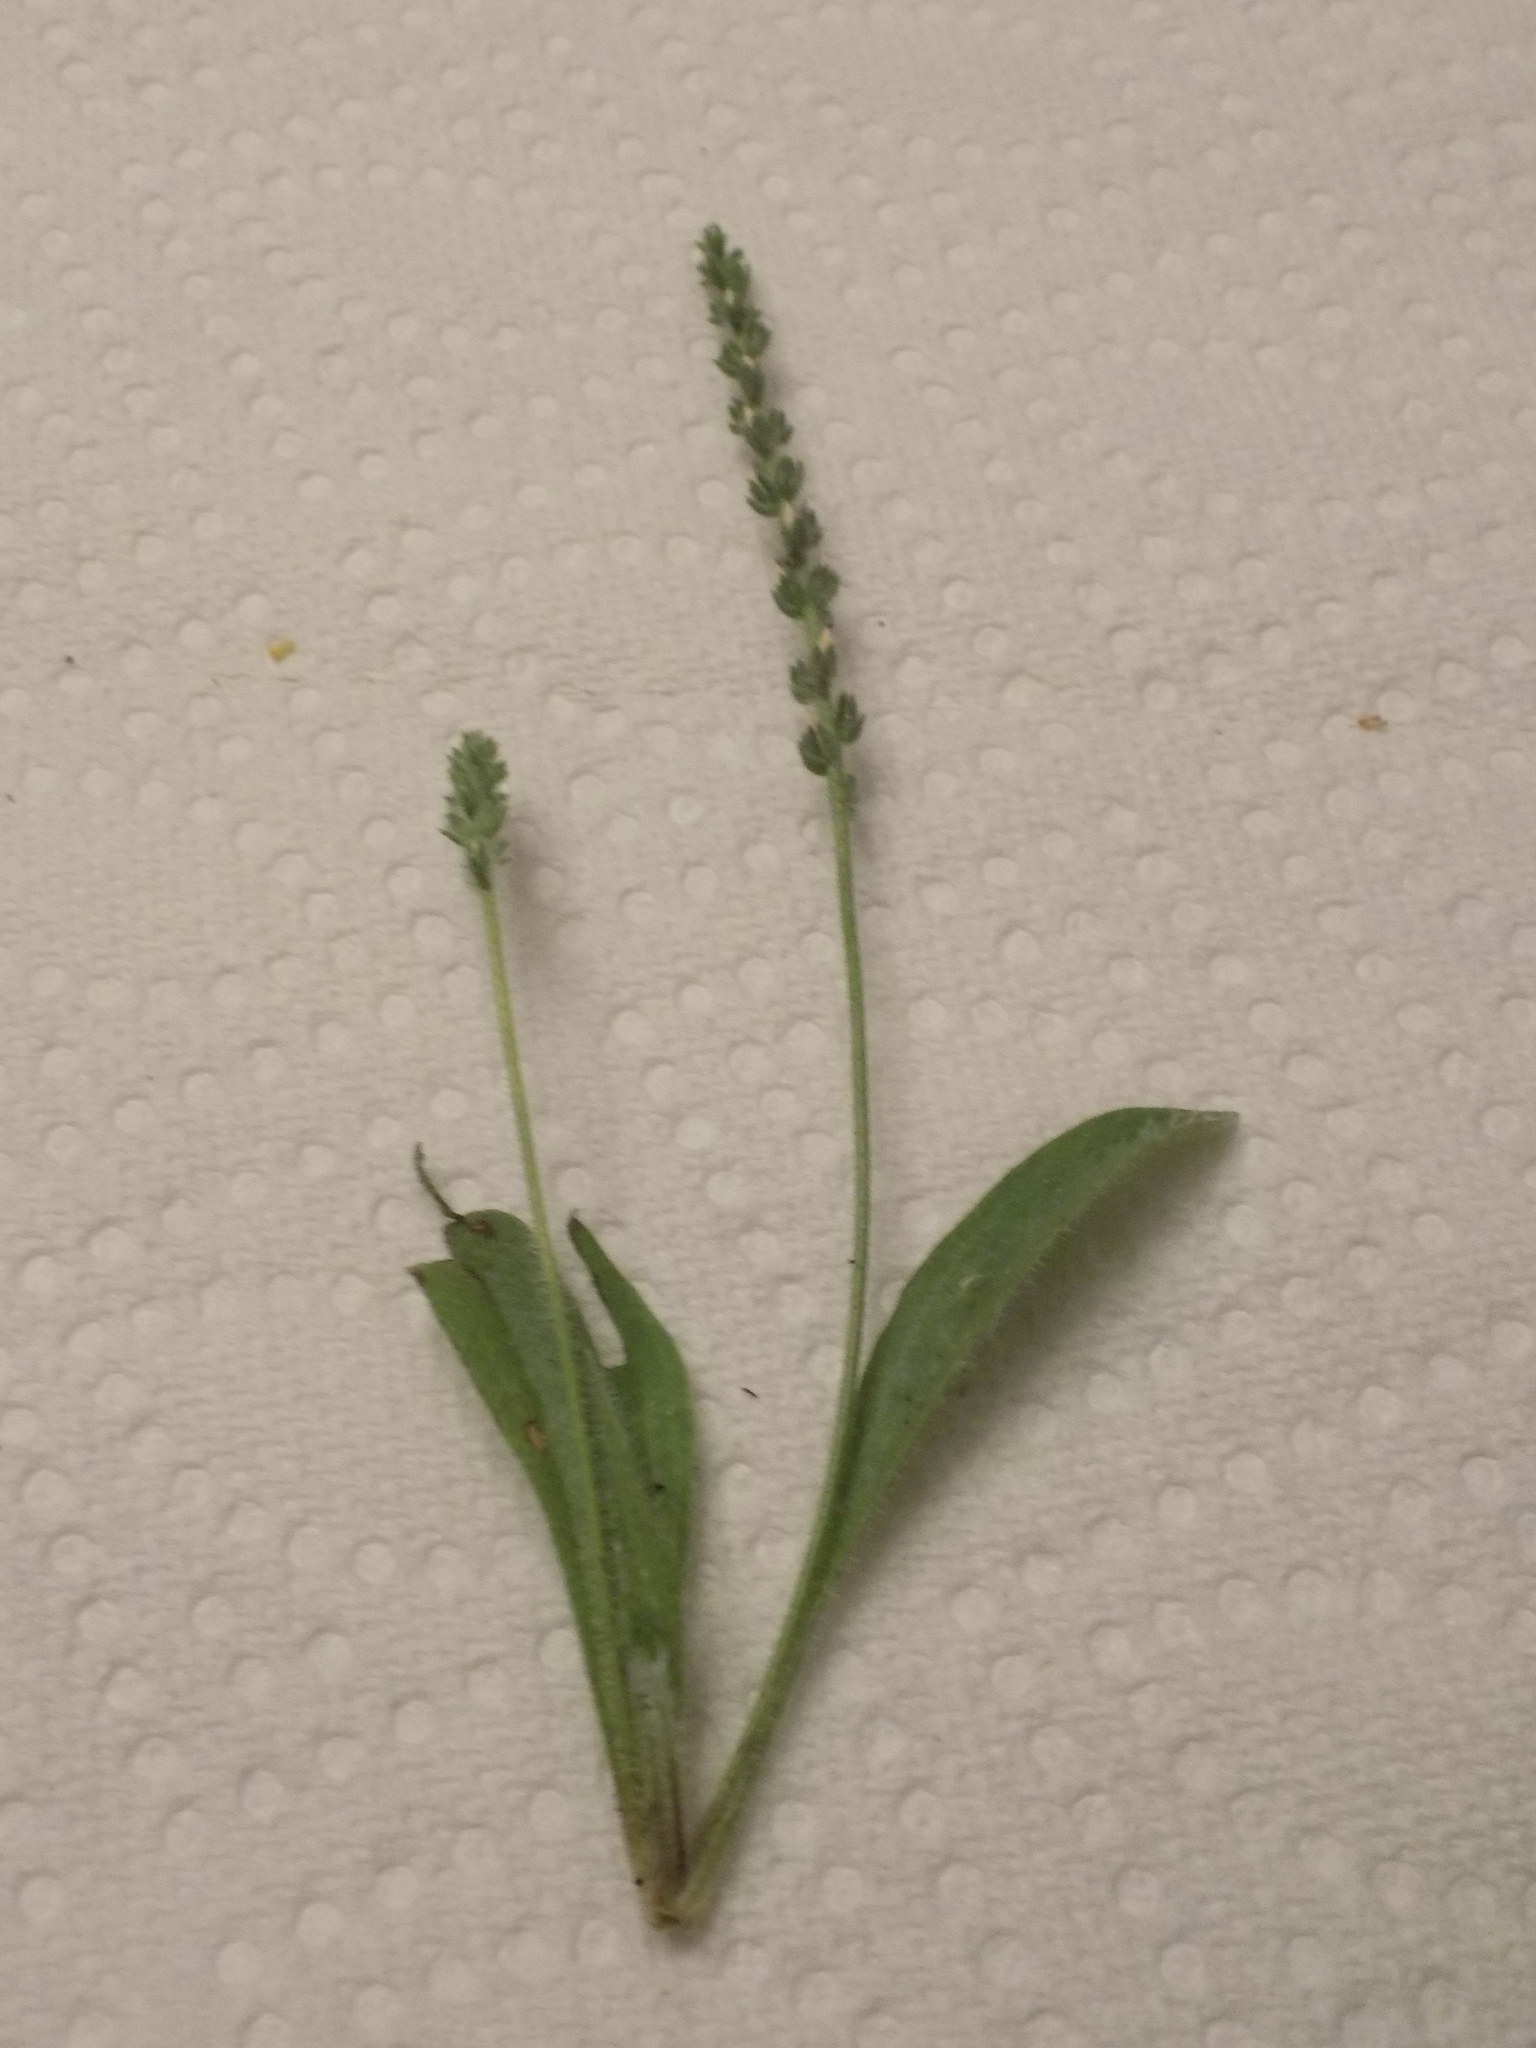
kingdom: Plantae
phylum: Tracheophyta
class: Magnoliopsida
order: Lamiales
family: Plantaginaceae
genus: Plantago
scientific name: Plantago rhodosperma
